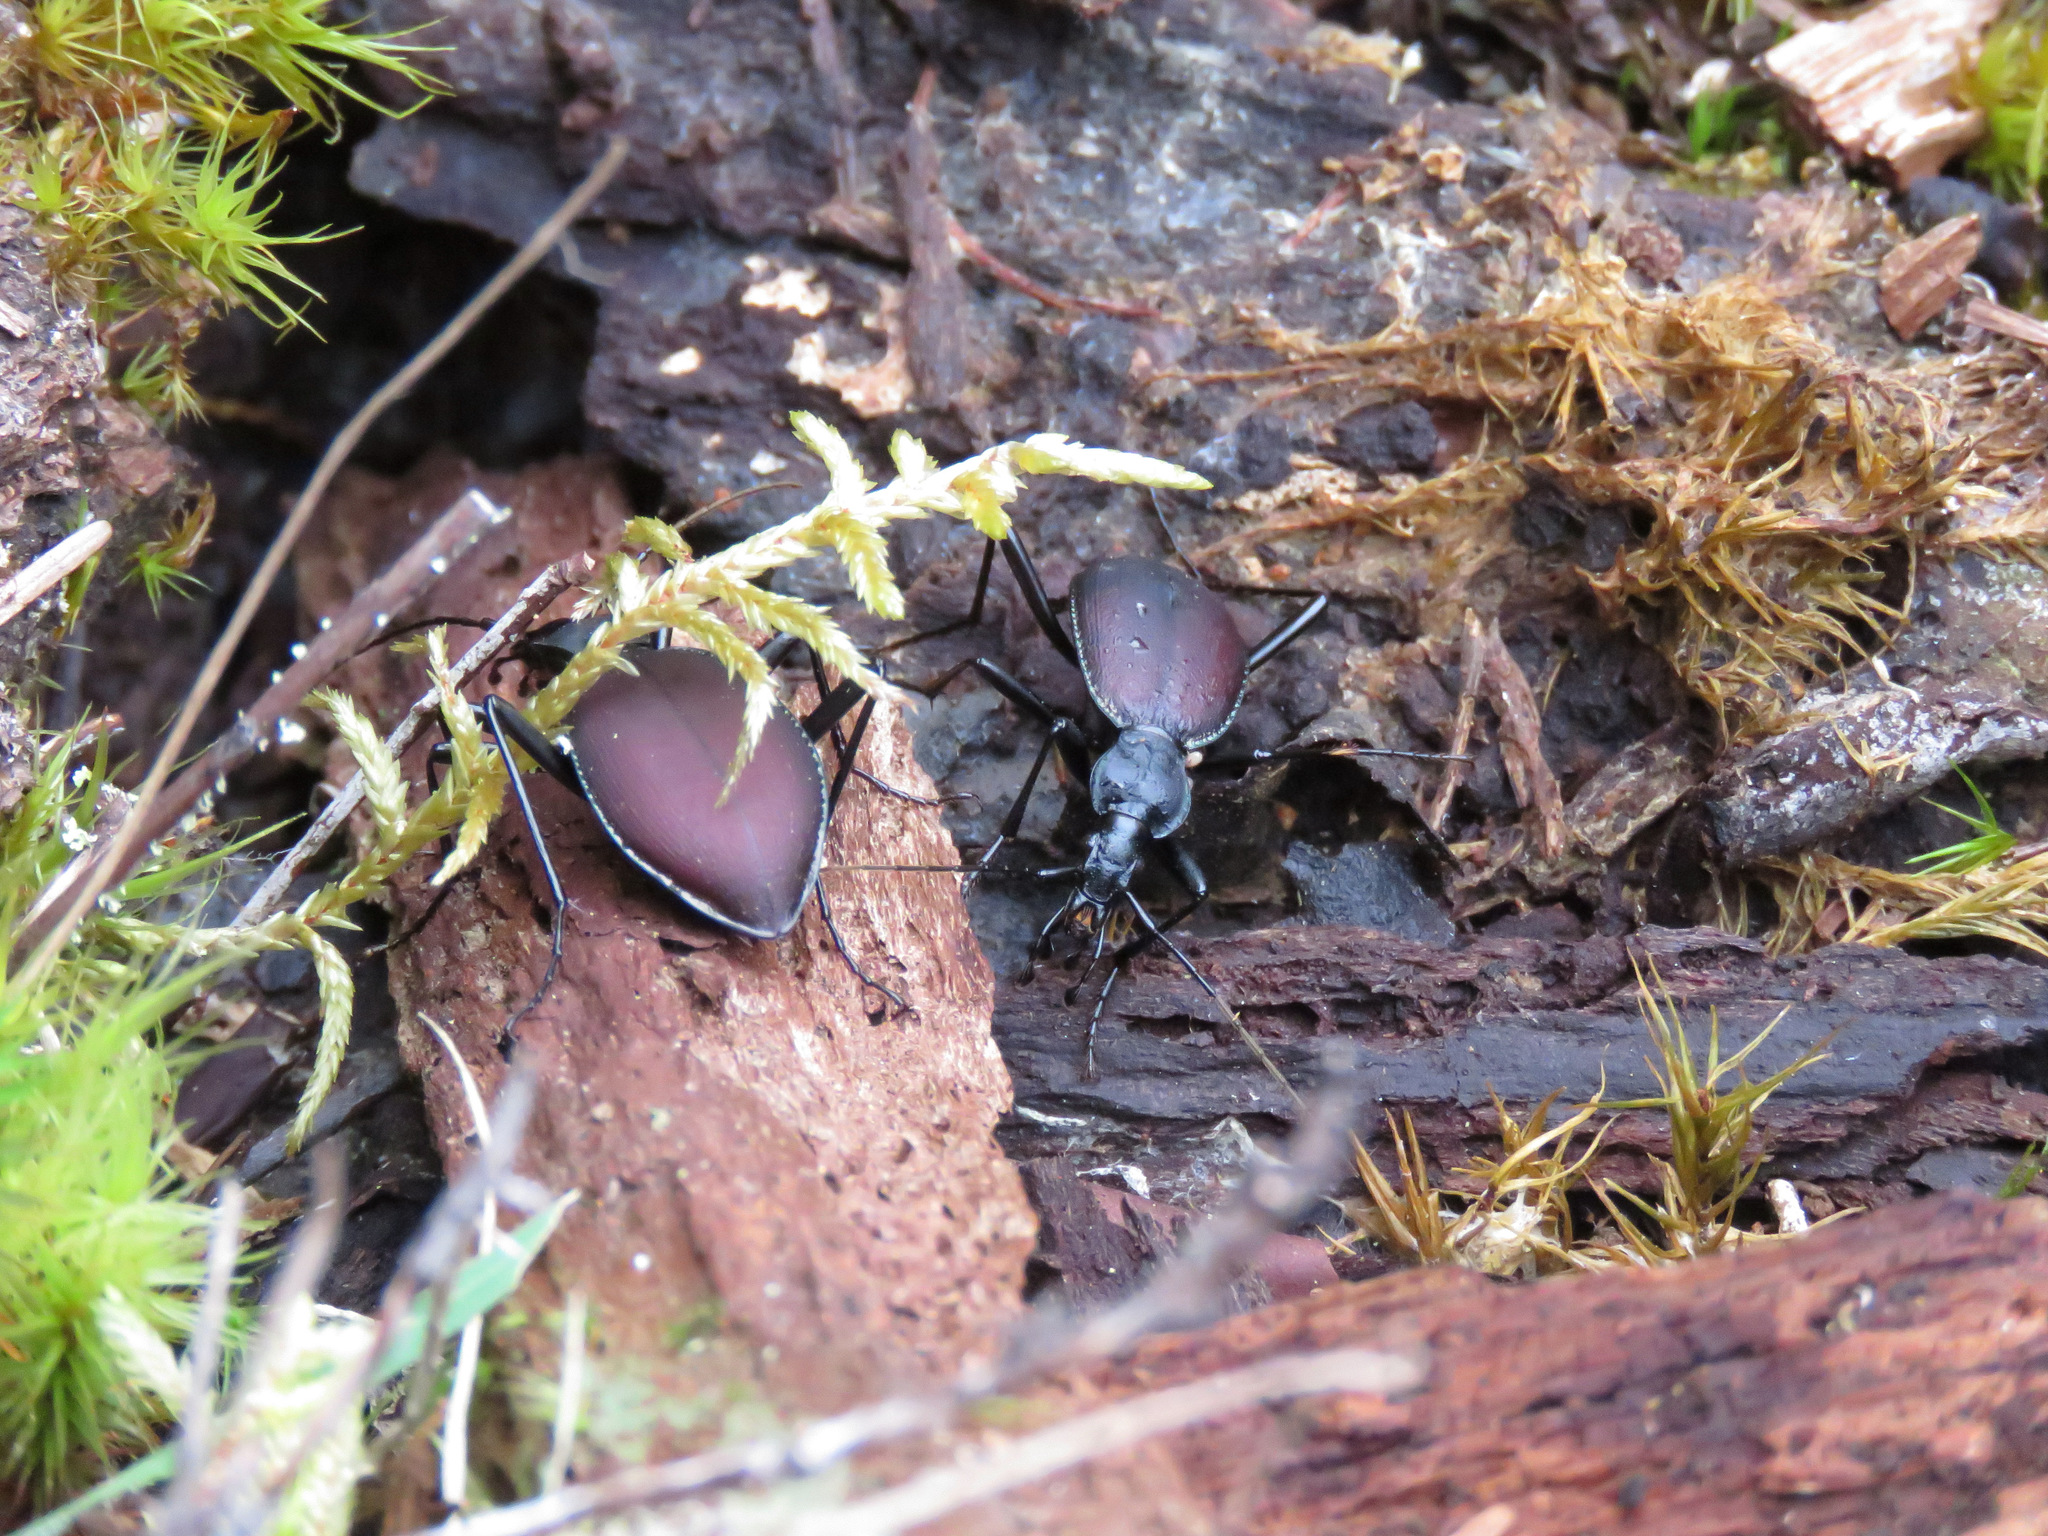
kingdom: Animalia
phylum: Arthropoda
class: Insecta
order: Coleoptera
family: Carabidae
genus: Scaphinotus
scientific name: Scaphinotus angusticollis
